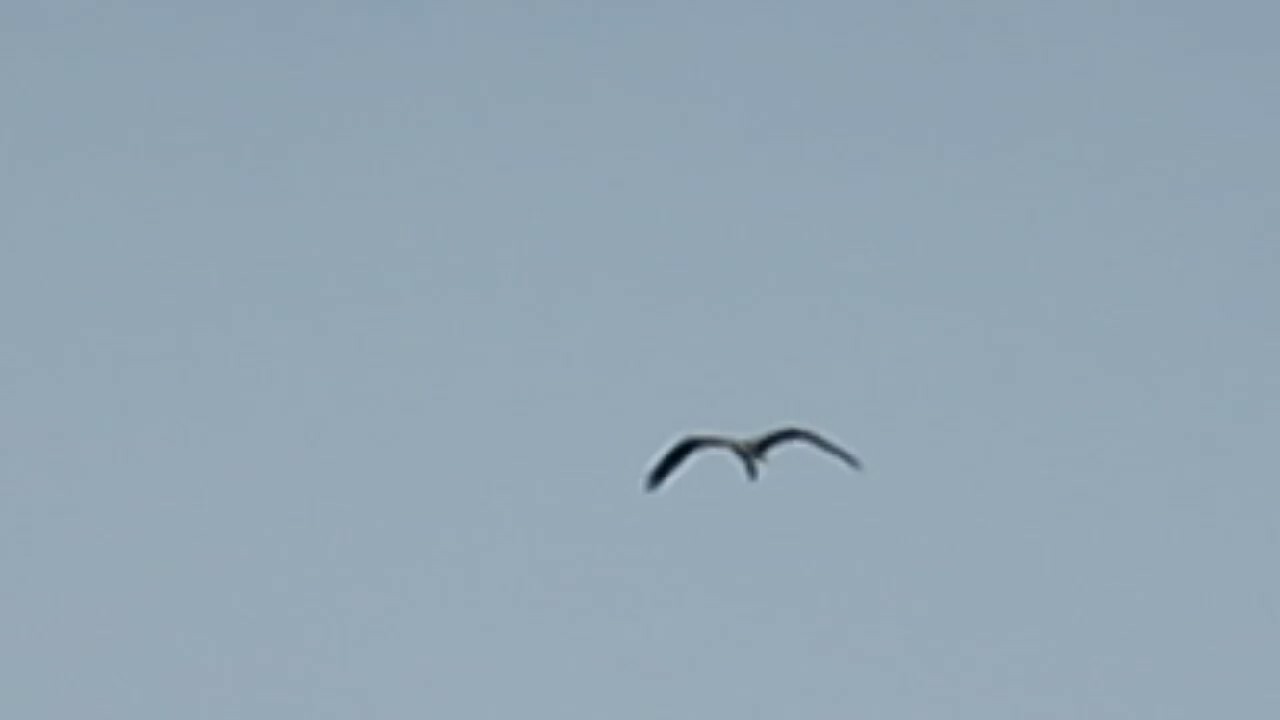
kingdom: Animalia
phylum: Chordata
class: Aves
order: Accipitriformes
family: Pandionidae
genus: Pandion
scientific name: Pandion haliaetus
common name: Osprey
